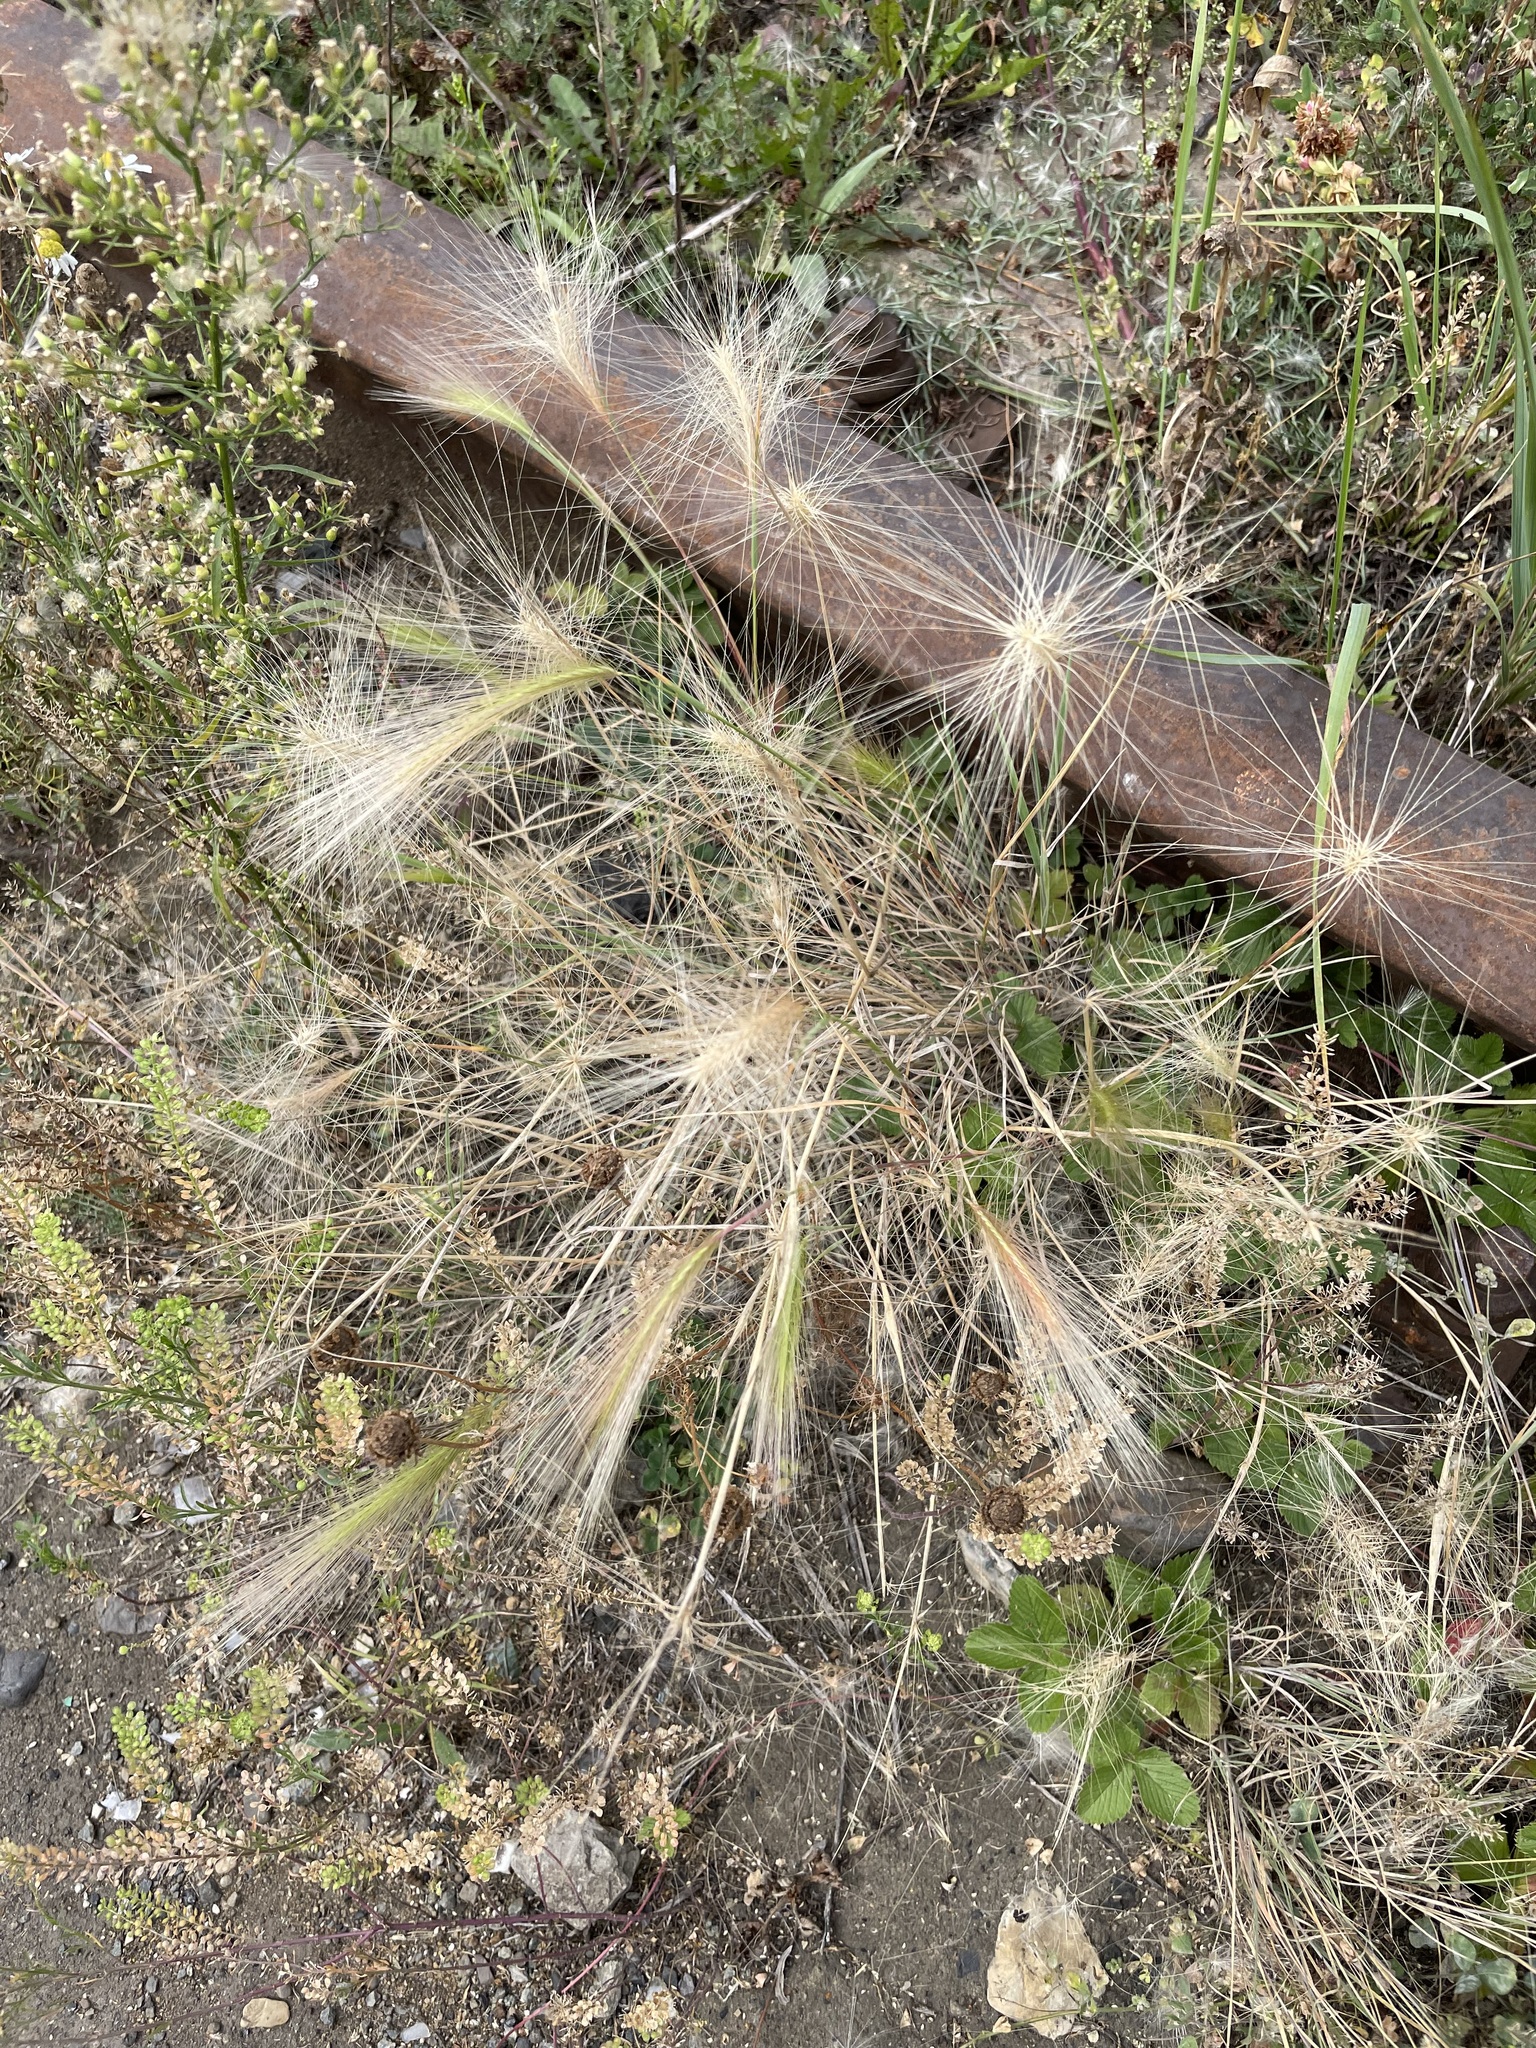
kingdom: Plantae
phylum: Tracheophyta
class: Liliopsida
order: Poales
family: Poaceae
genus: Hordeum
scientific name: Hordeum jubatum
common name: Foxtail barley
